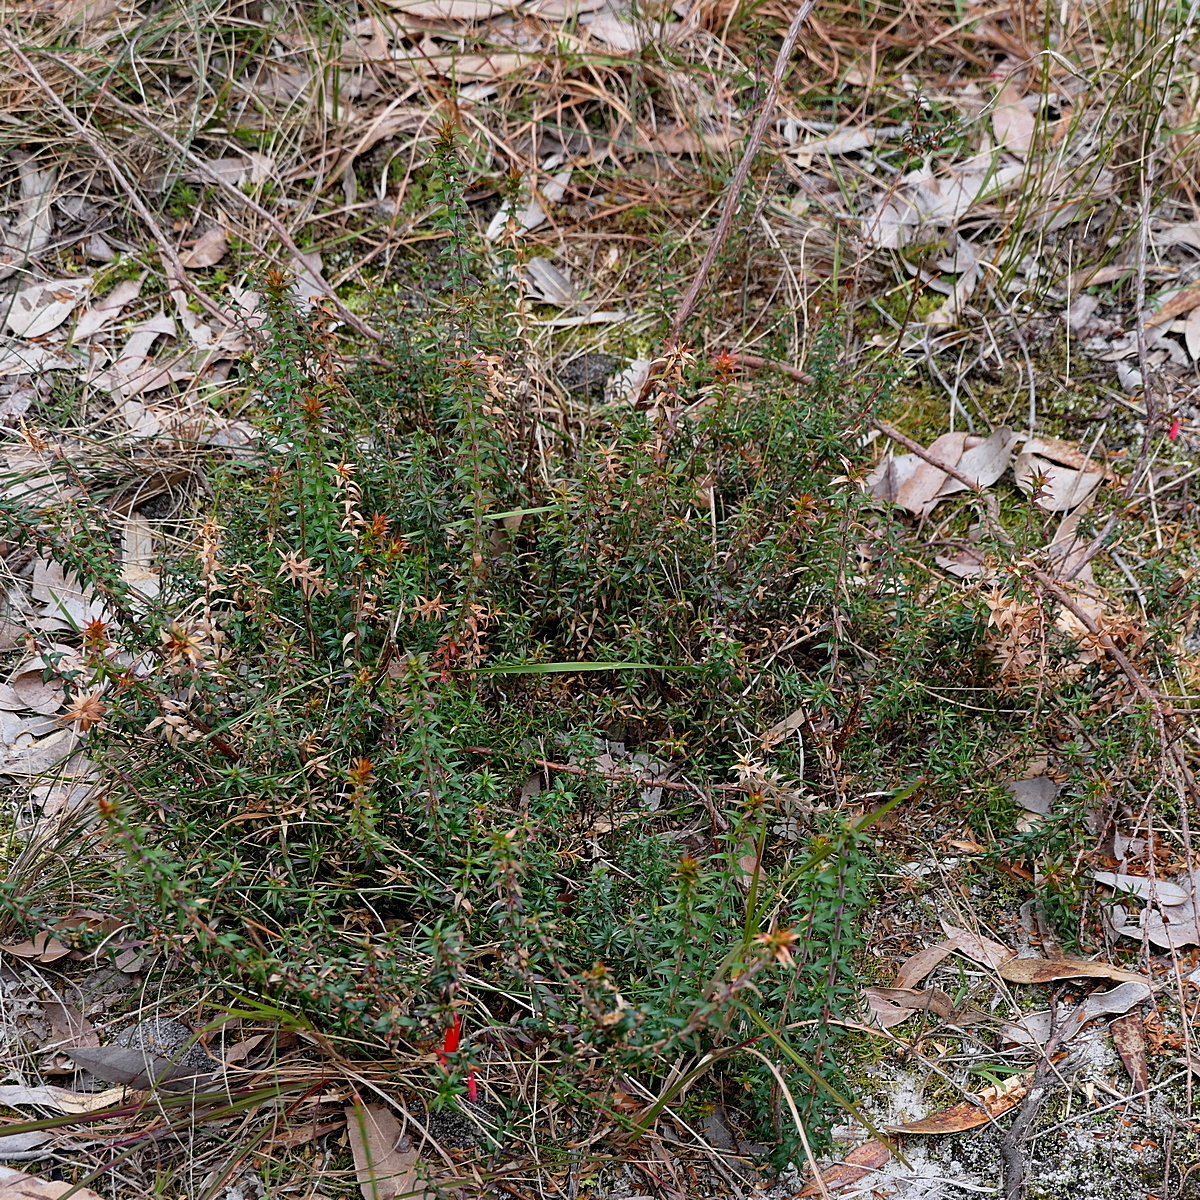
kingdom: Plantae
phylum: Tracheophyta
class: Magnoliopsida
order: Ericales
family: Ericaceae
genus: Epacris
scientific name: Epacris impressa
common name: Common-heath
